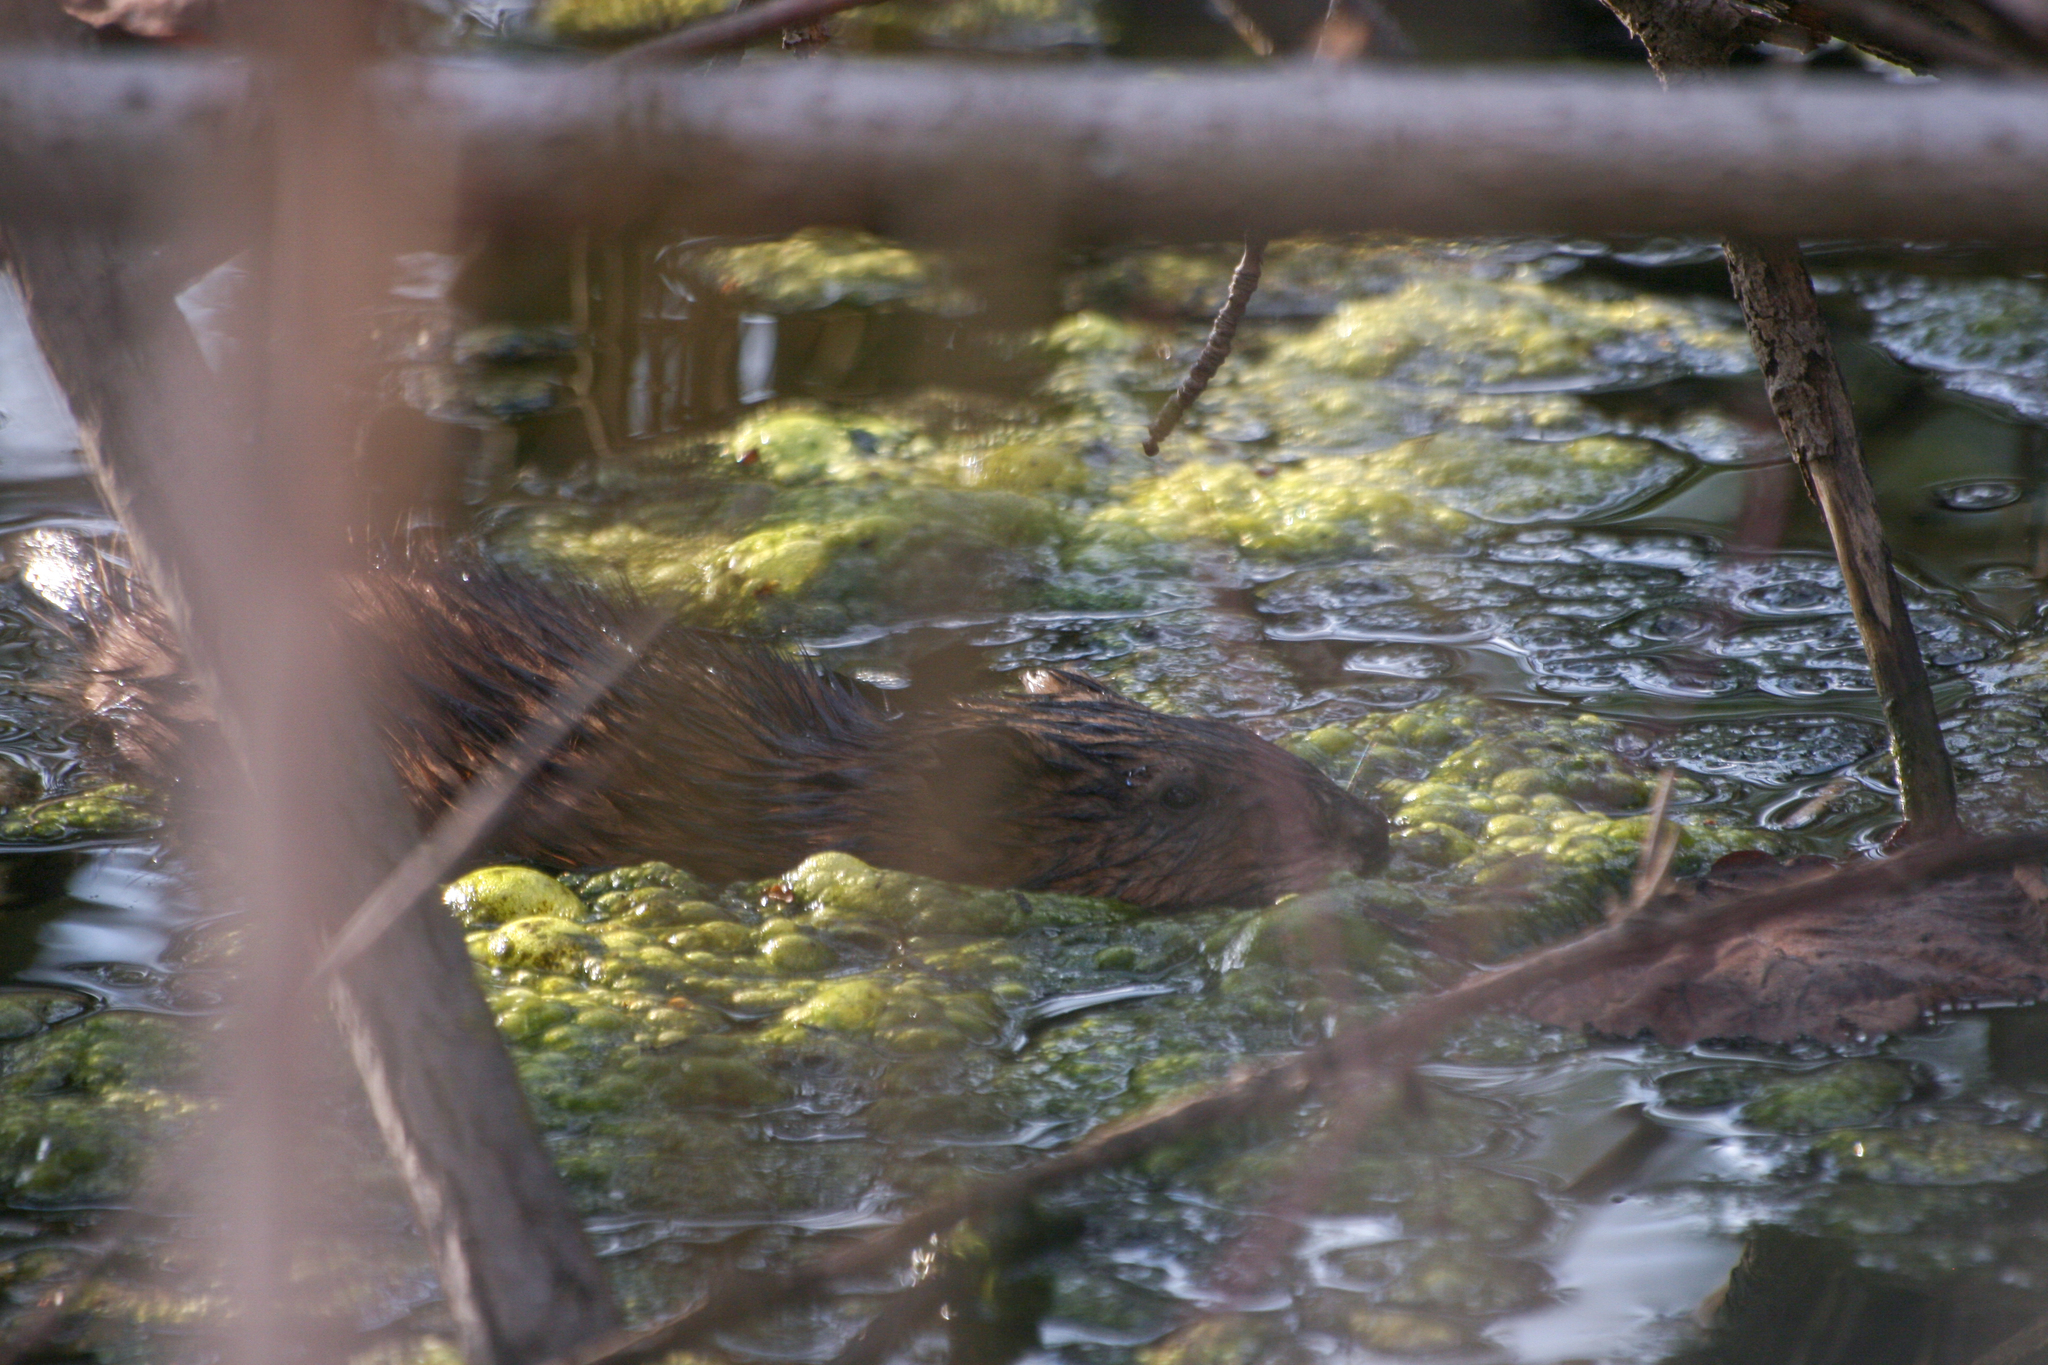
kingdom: Animalia
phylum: Chordata
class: Mammalia
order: Rodentia
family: Cricetidae
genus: Ondatra
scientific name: Ondatra zibethicus
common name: Muskrat
